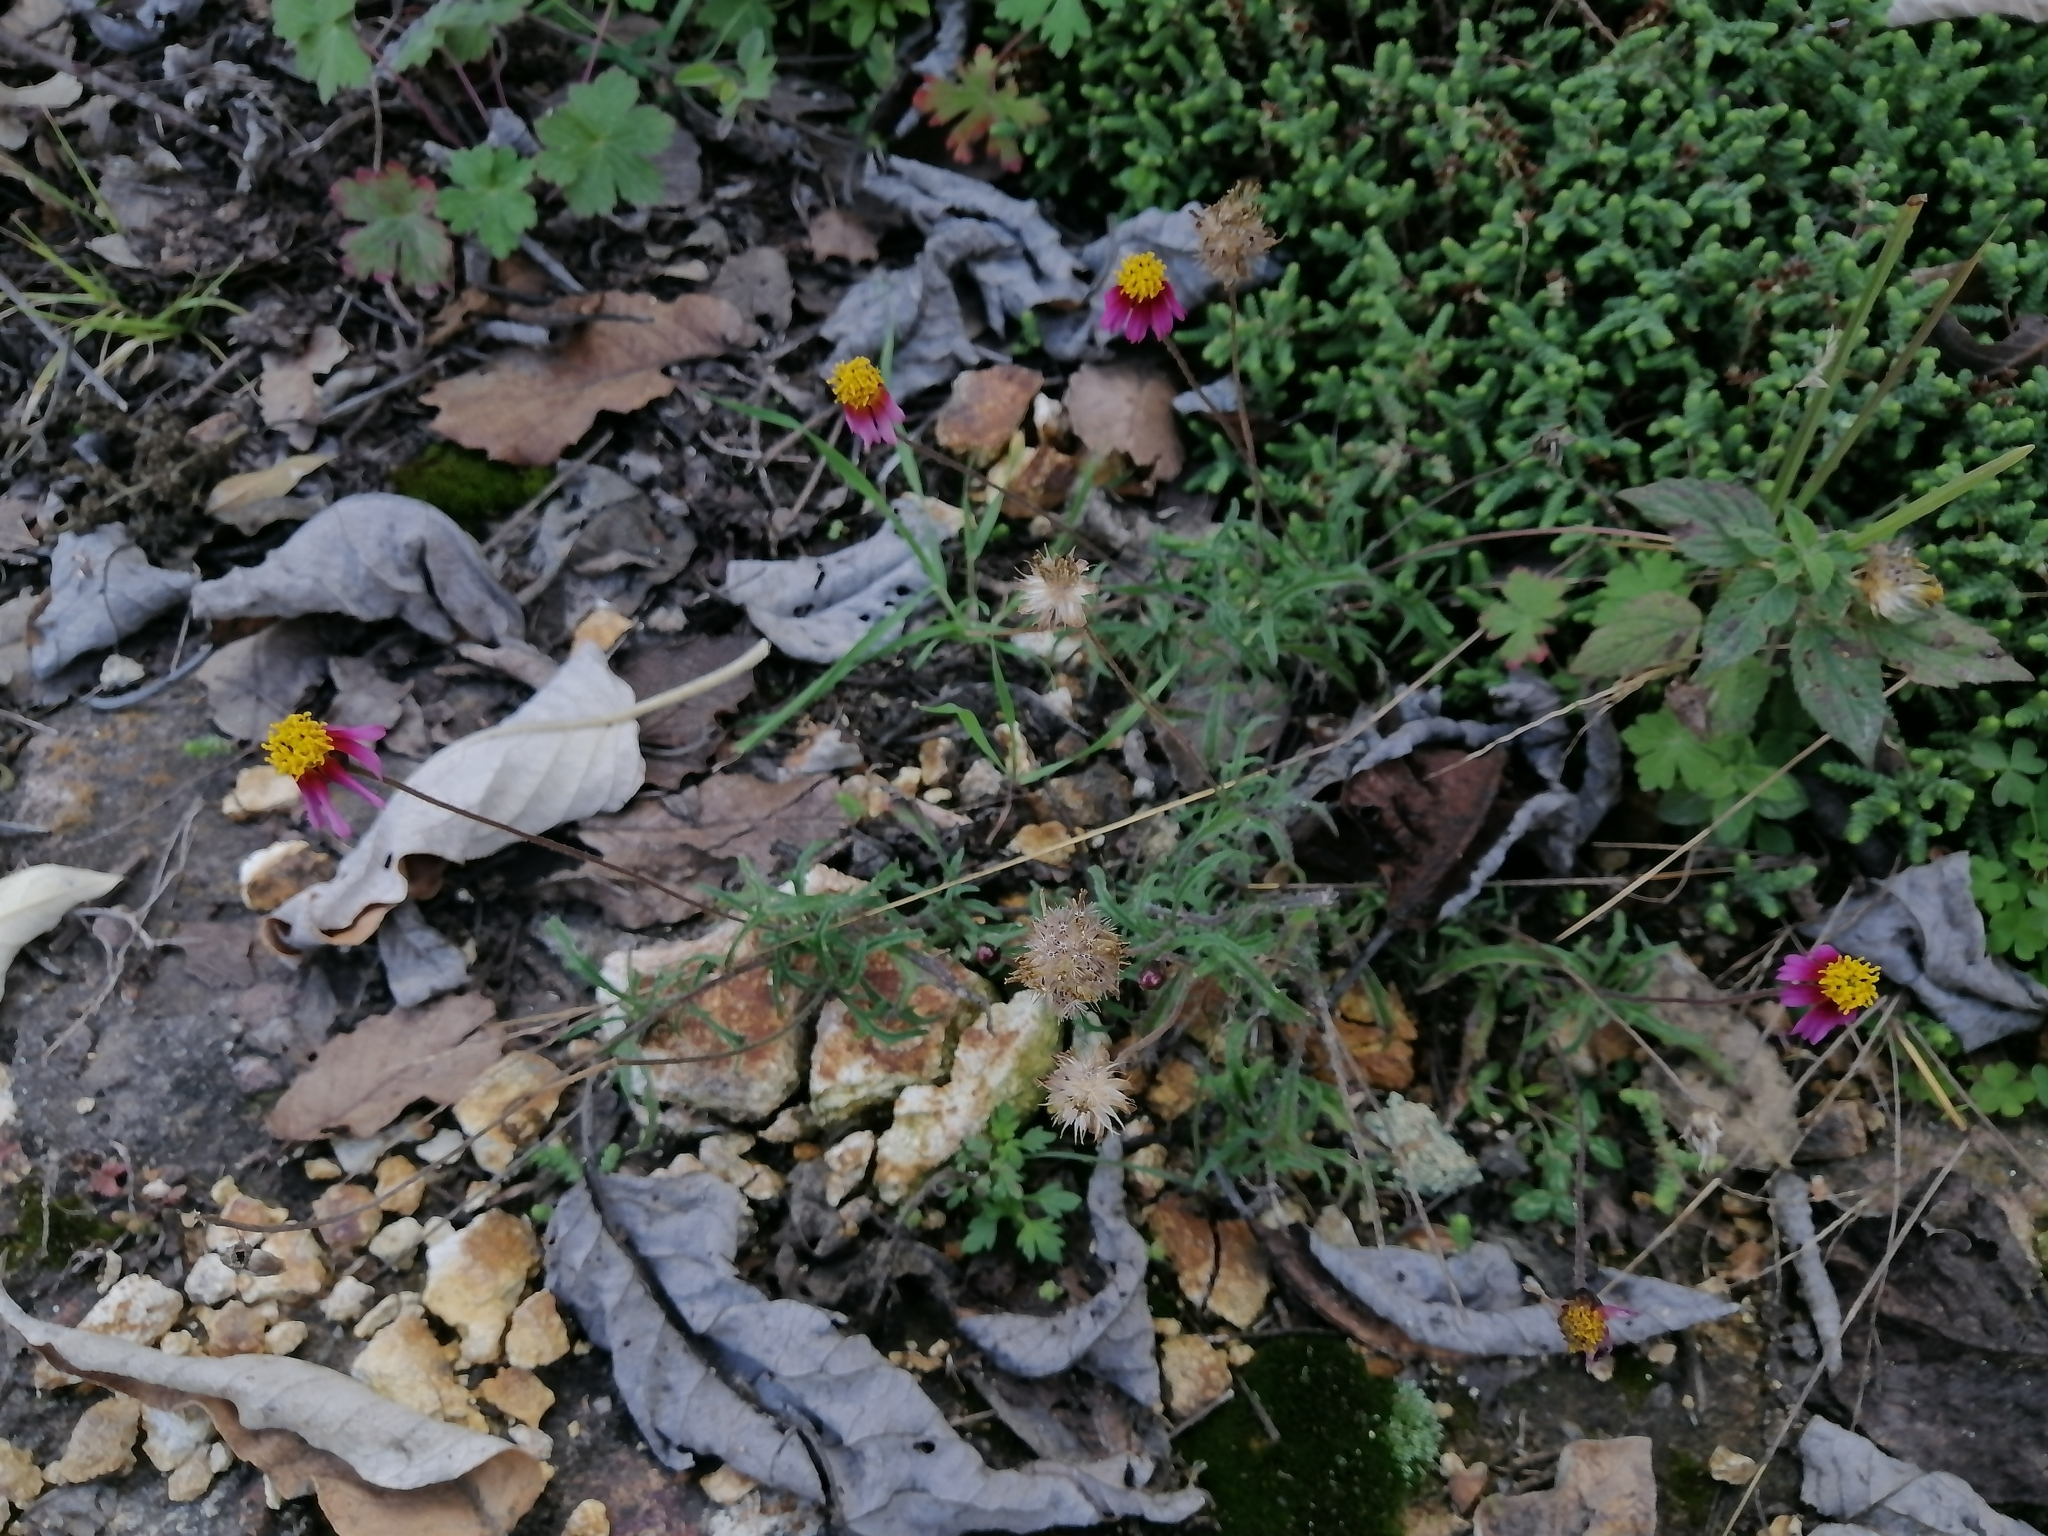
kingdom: Plantae
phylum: Tracheophyta
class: Magnoliopsida
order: Asterales
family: Asteraceae
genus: Tridax
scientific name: Tridax rosea
